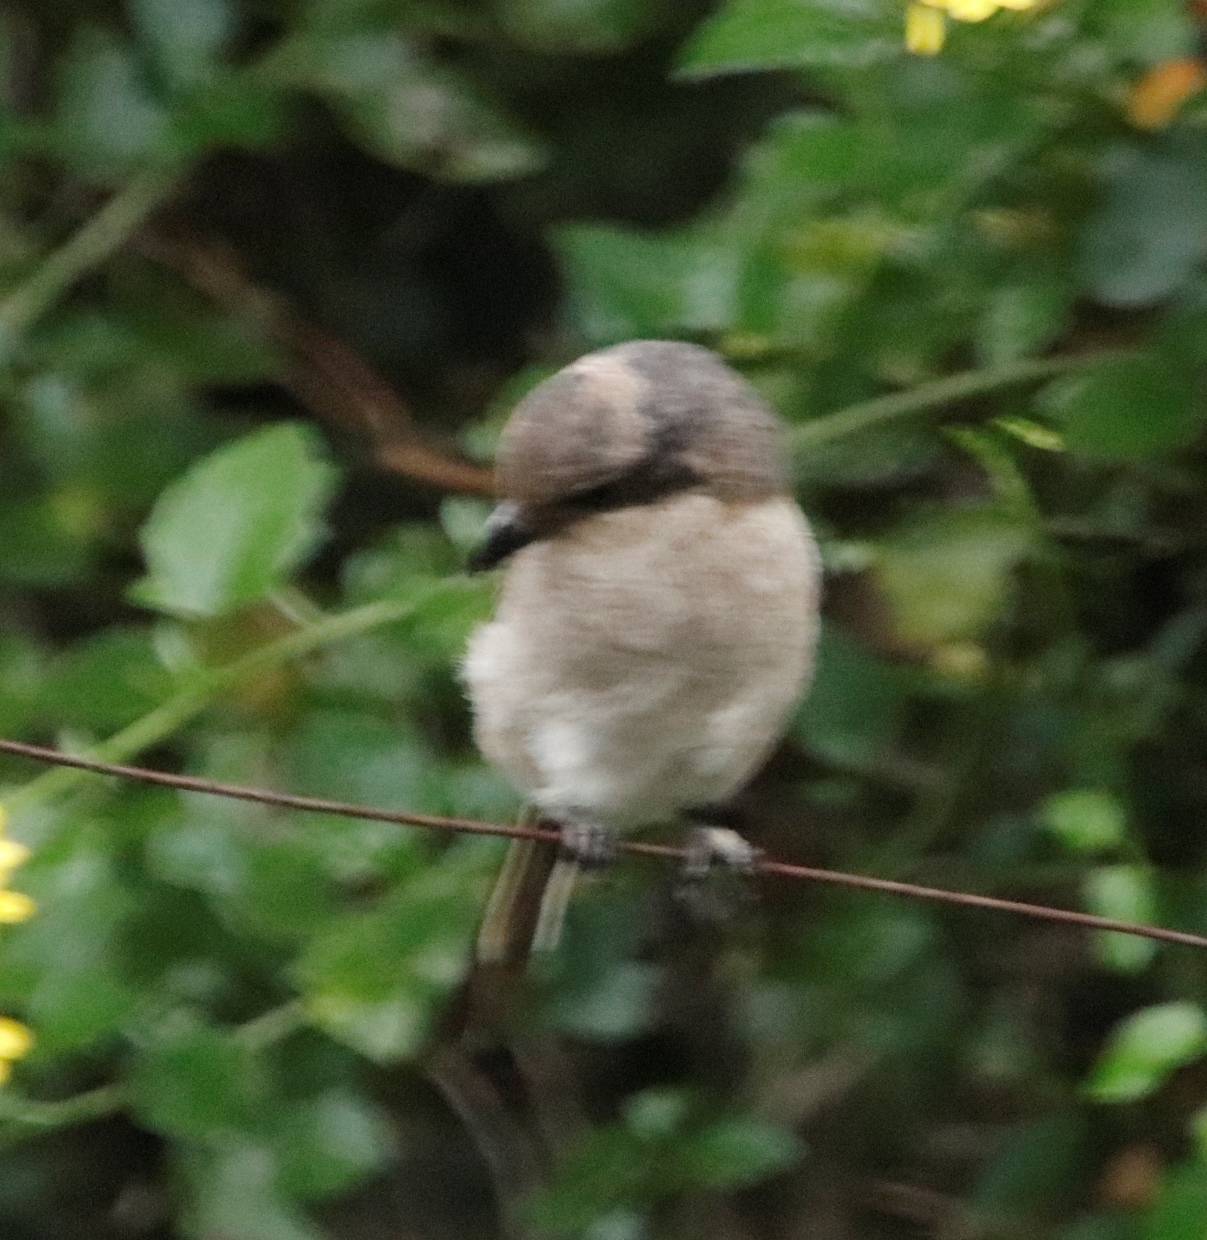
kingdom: Animalia
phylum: Chordata
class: Aves
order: Passeriformes
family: Laniidae
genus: Lanius
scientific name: Lanius collaris
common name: Southern fiscal
